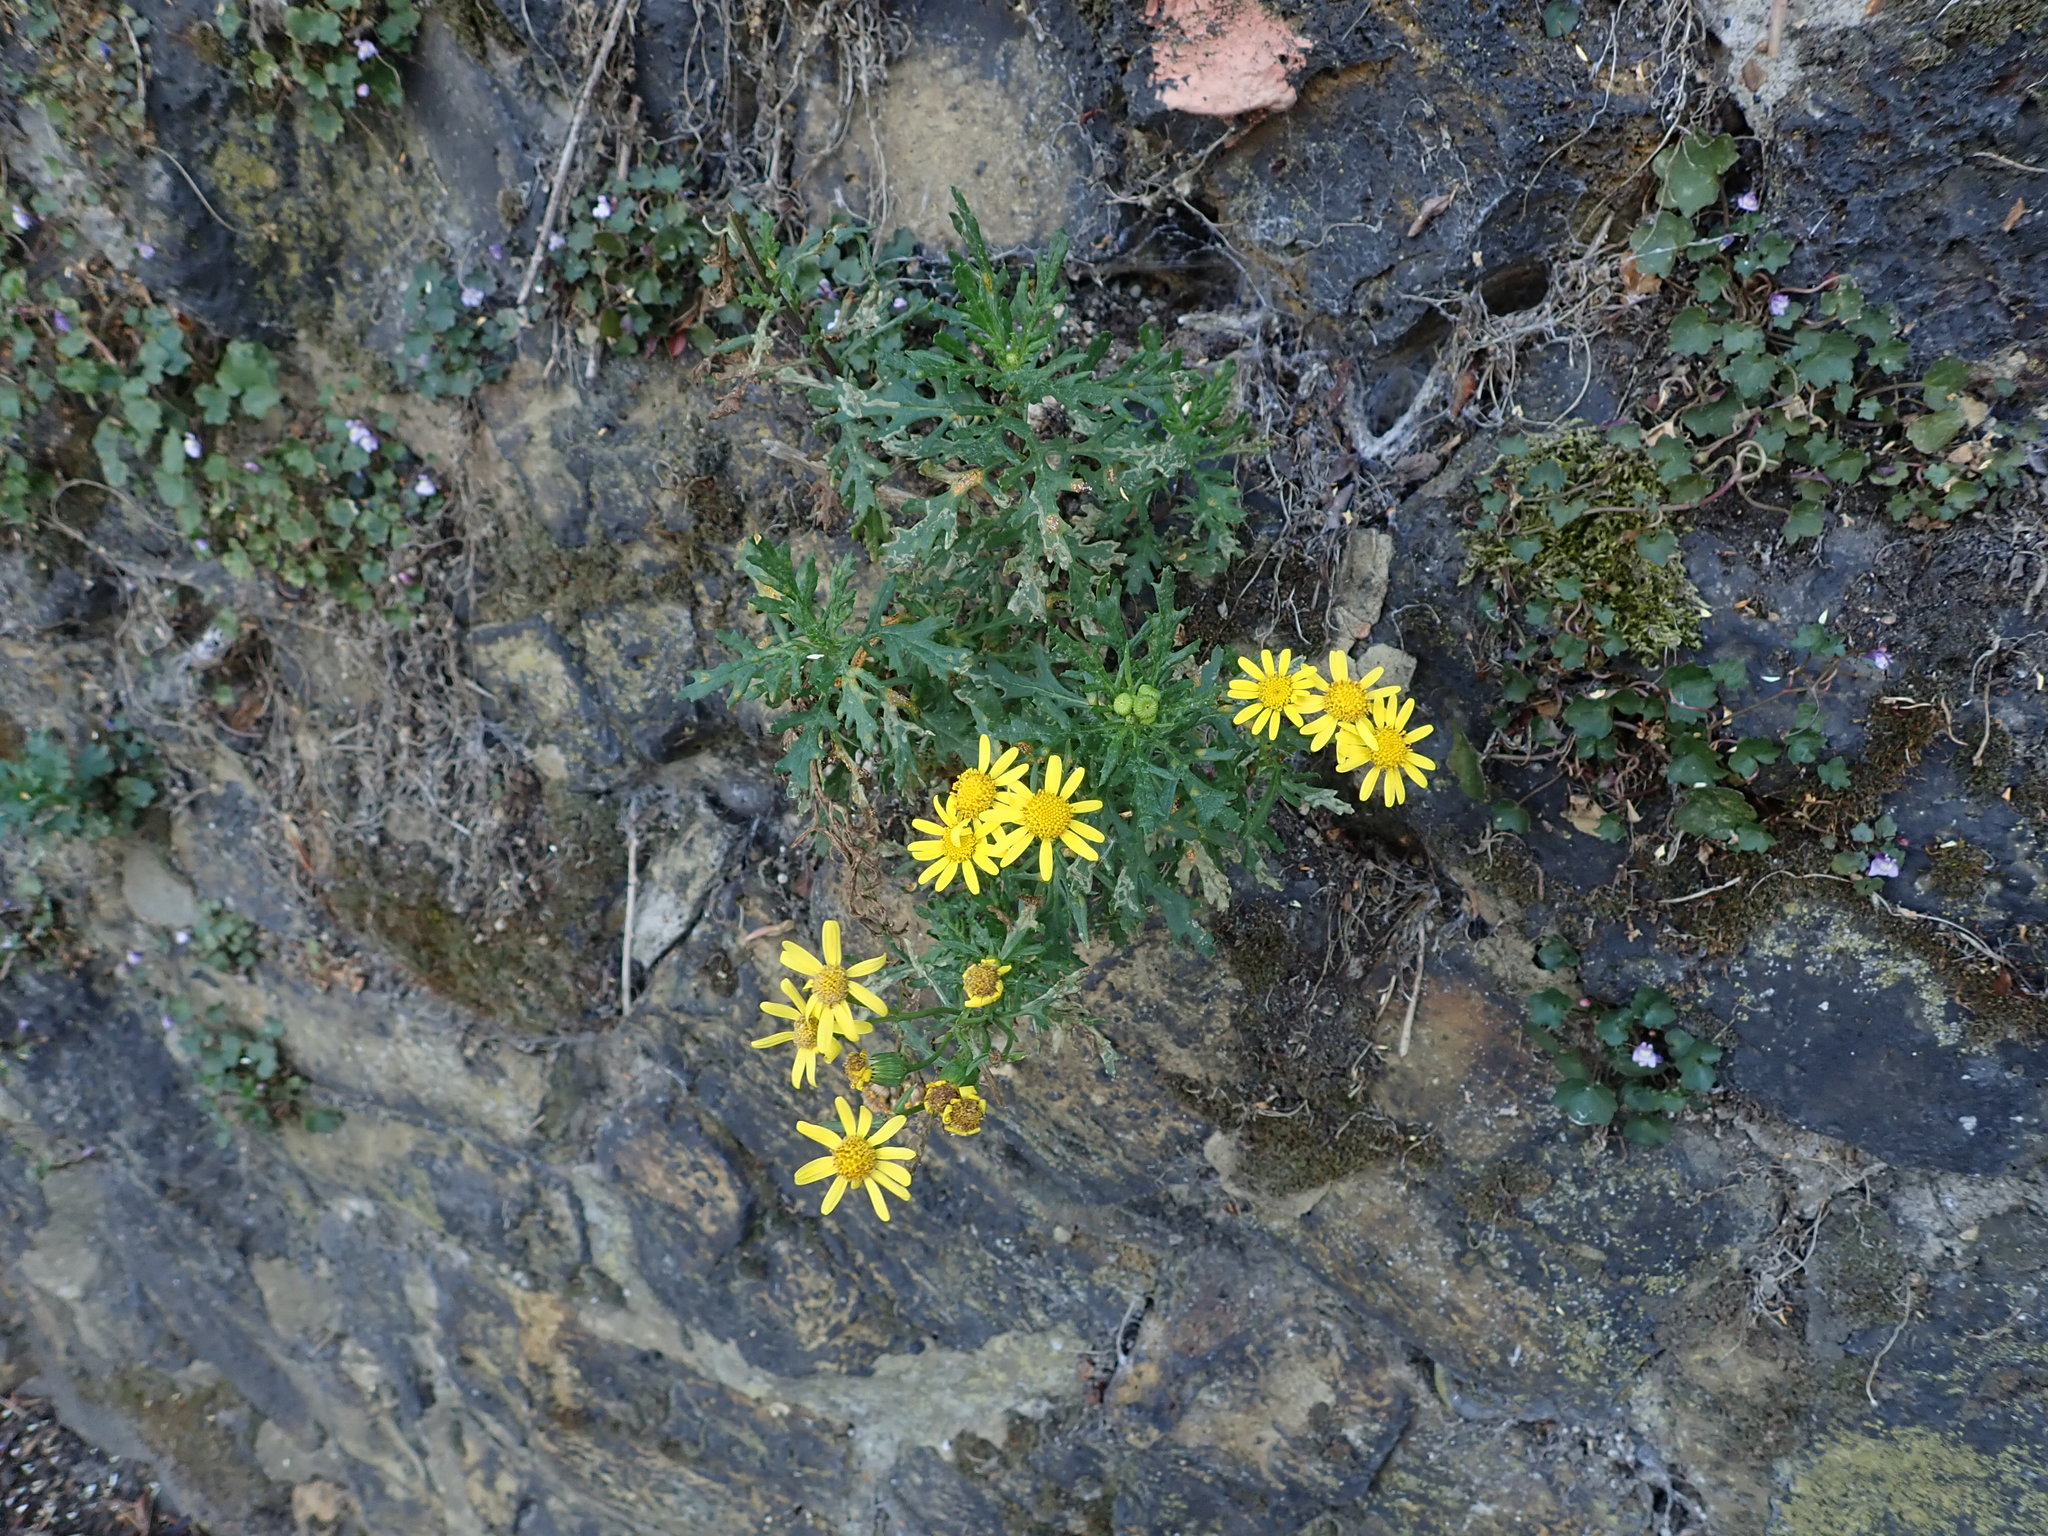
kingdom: Plantae
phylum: Tracheophyta
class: Magnoliopsida
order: Asterales
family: Asteraceae
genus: Senecio
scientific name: Senecio squalidus
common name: Oxford ragwort
